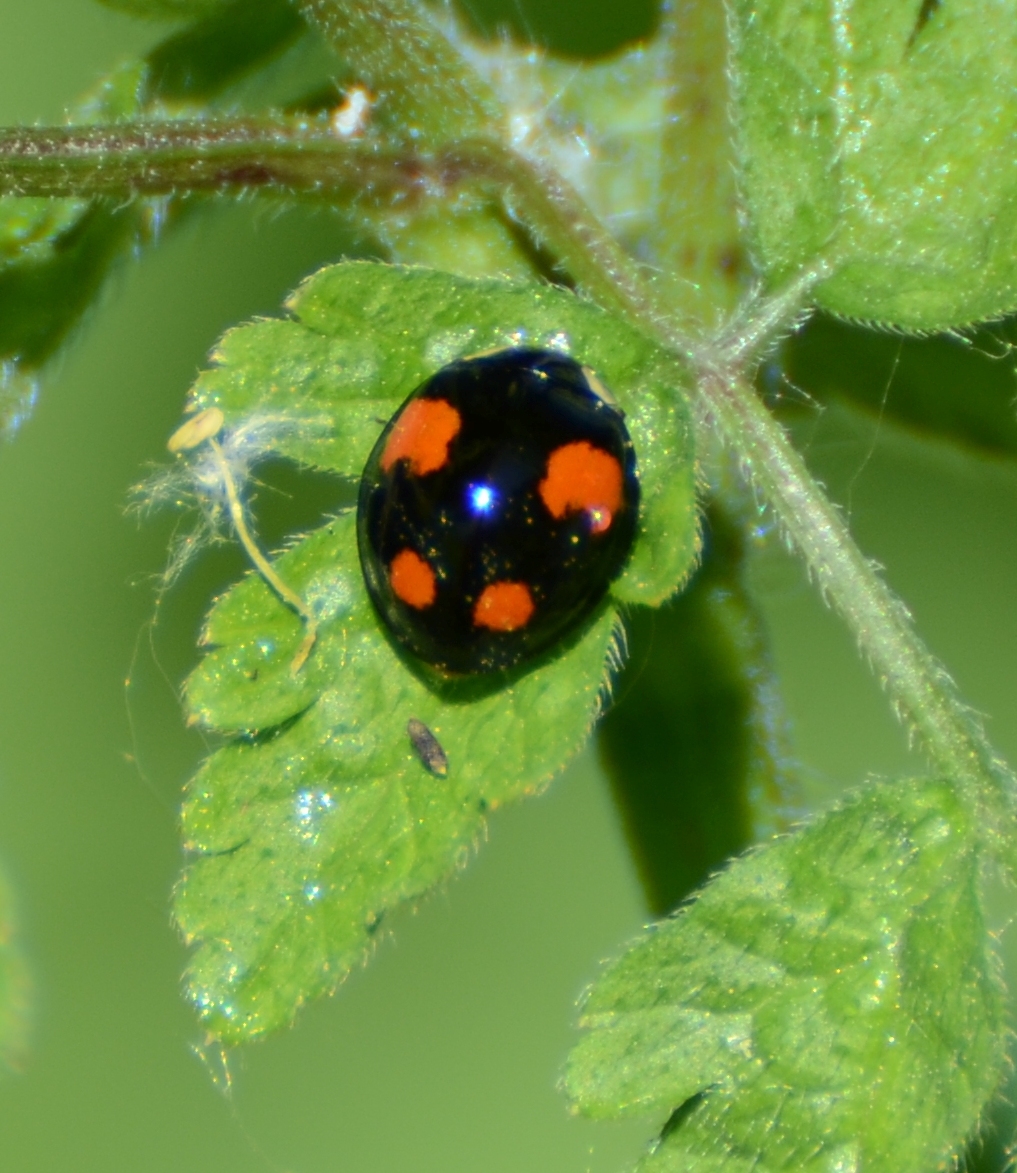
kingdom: Animalia
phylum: Arthropoda
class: Insecta
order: Coleoptera
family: Coccinellidae
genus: Harmonia
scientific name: Harmonia axyridis
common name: Harlequin ladybird
